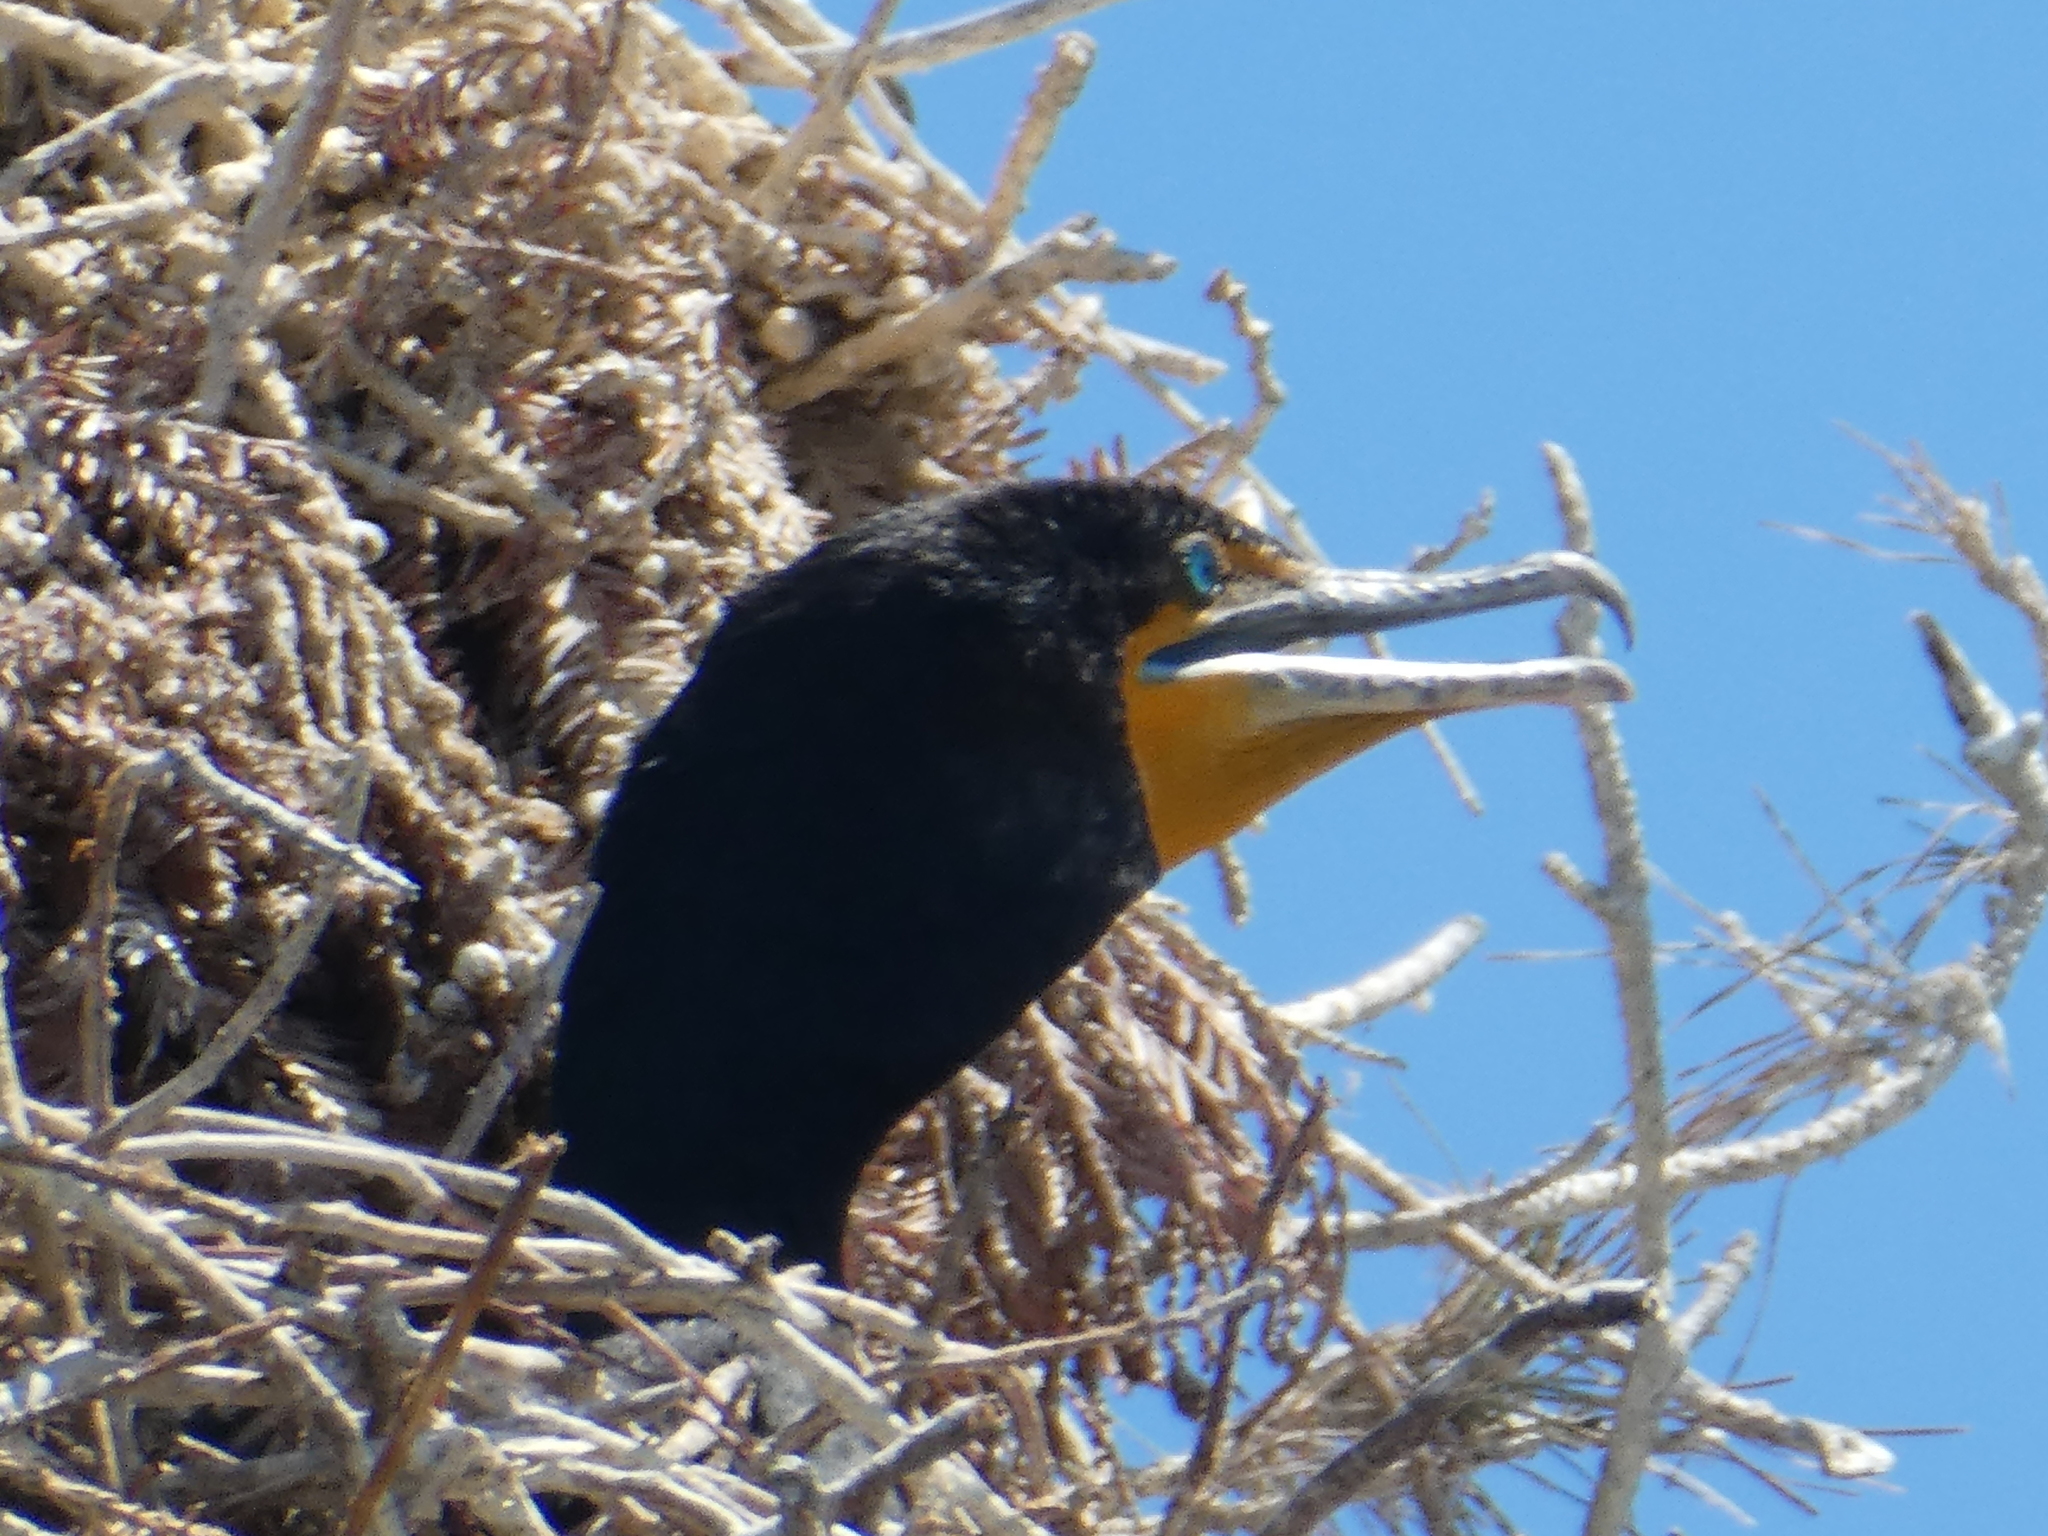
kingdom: Animalia
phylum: Chordata
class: Aves
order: Suliformes
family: Phalacrocoracidae
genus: Phalacrocorax
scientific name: Phalacrocorax auritus
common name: Double-crested cormorant
